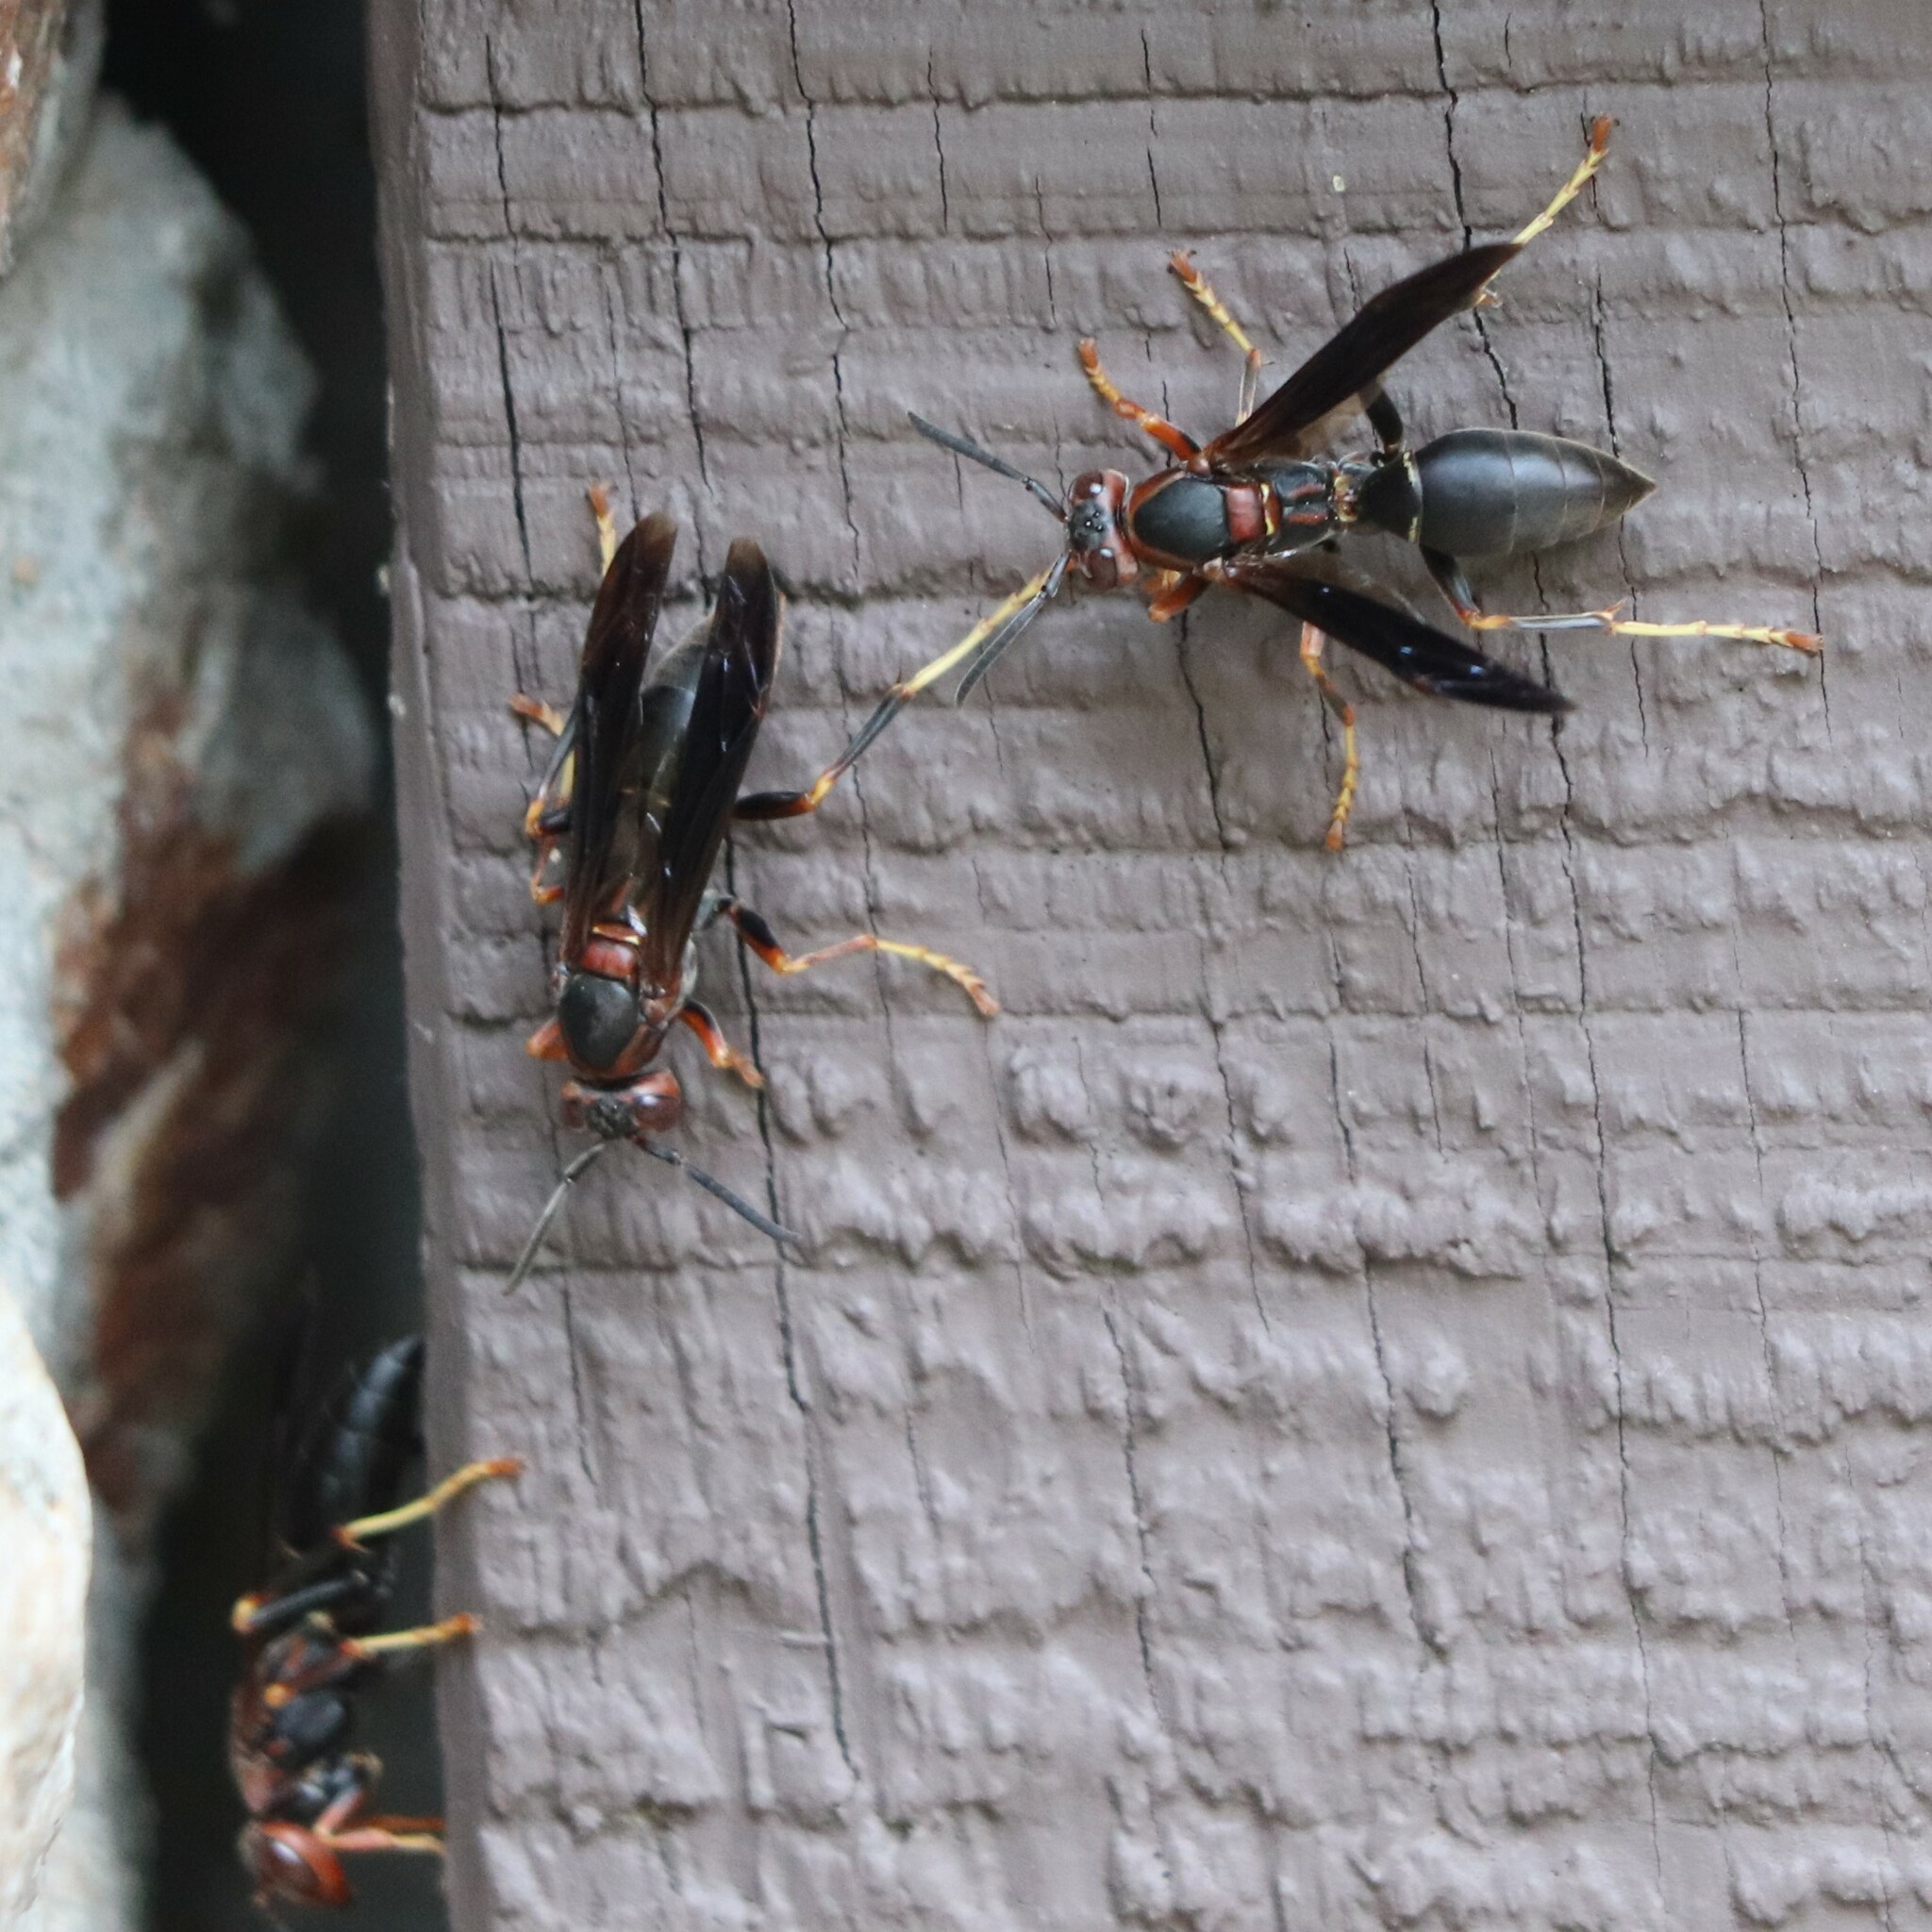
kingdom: Animalia
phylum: Arthropoda
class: Insecta
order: Hymenoptera
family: Eumenidae
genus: Polistes
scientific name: Polistes metricus
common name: Metric paper wasp
